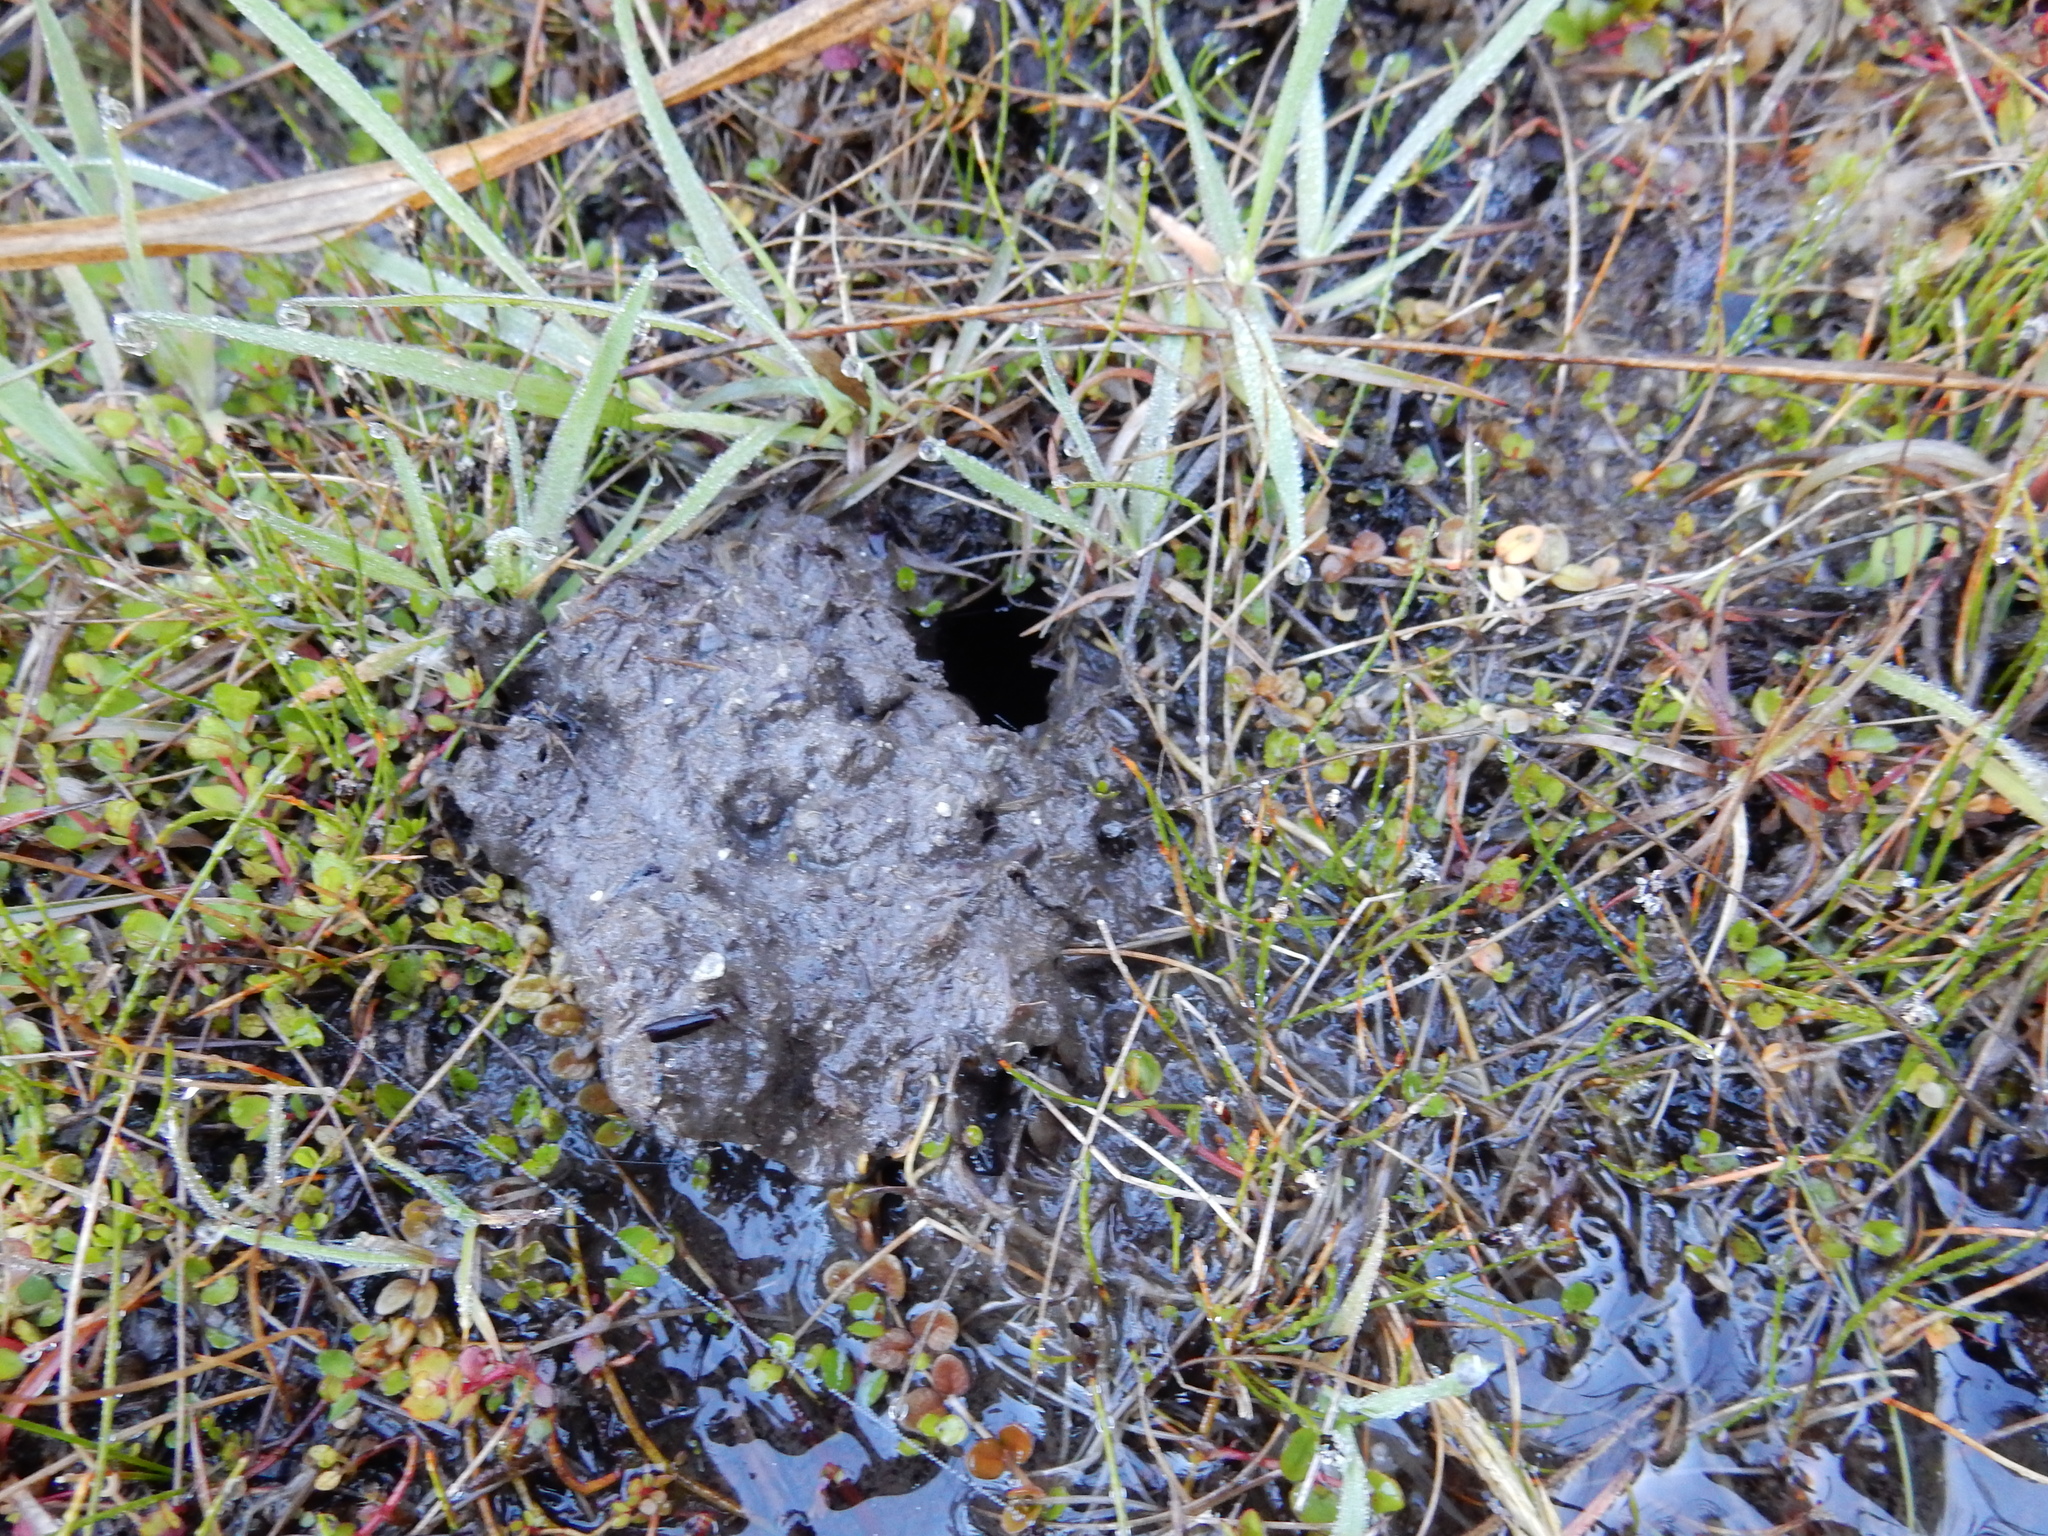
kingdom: Animalia
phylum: Arthropoda
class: Insecta
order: Odonata
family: Petaluridae
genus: Uropetala
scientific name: Uropetala chiltoni
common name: Mountain giant dragonfly
